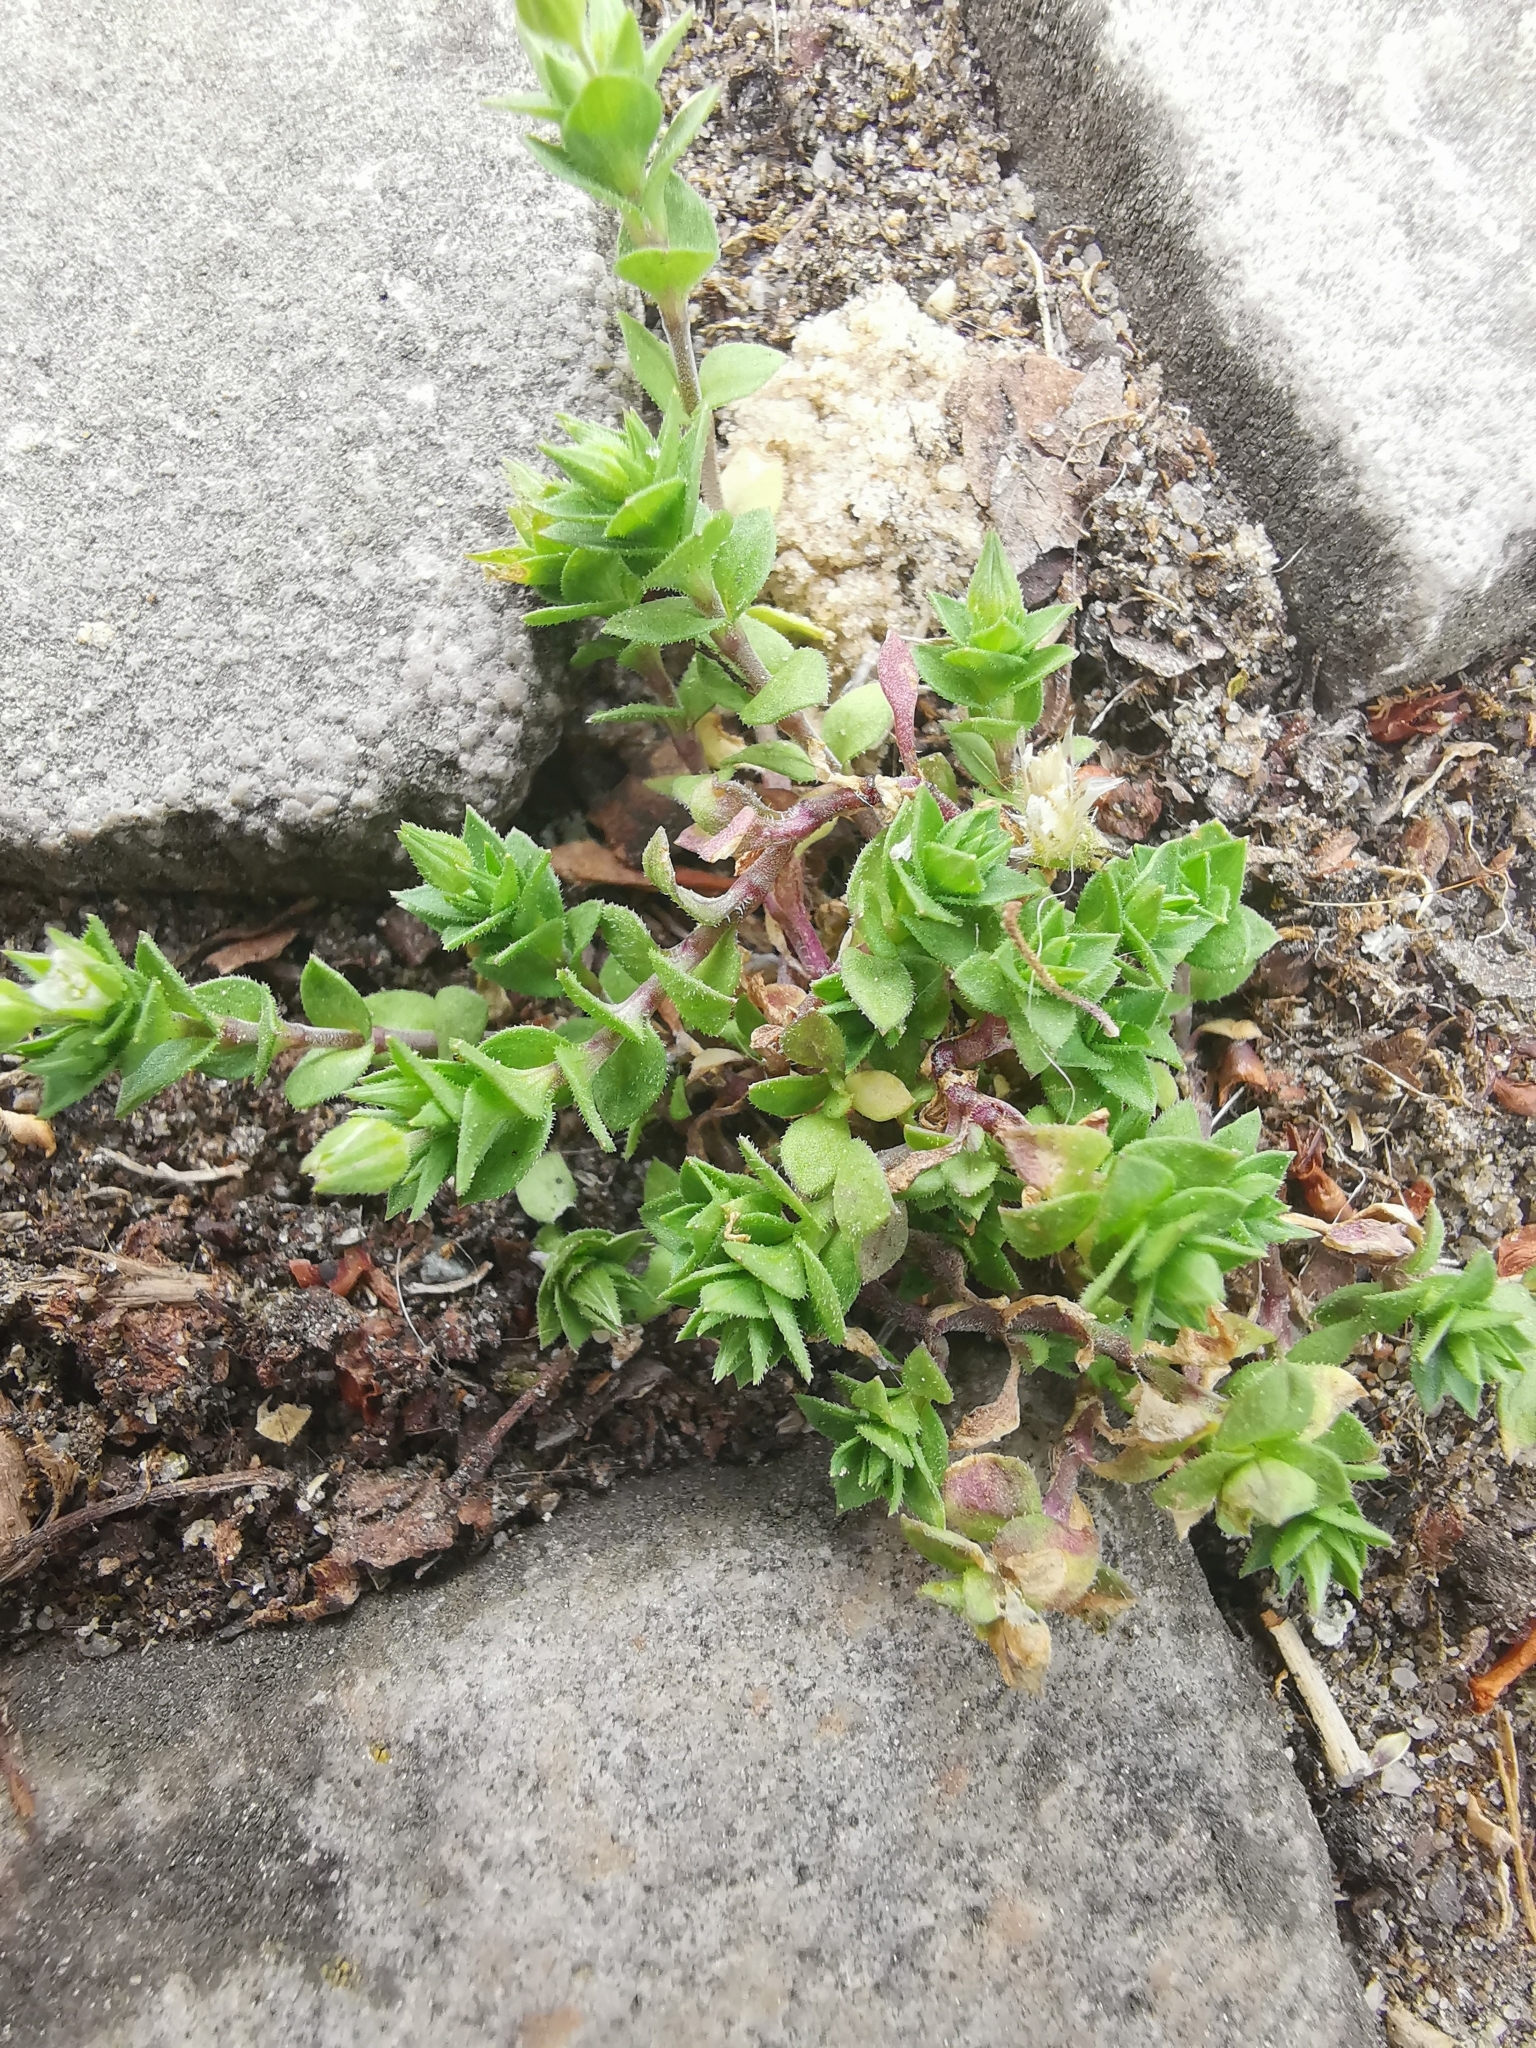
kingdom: Plantae
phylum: Tracheophyta
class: Magnoliopsida
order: Caryophyllales
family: Caryophyllaceae
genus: Arenaria
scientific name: Arenaria serpyllifolia
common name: Thyme-leaved sandwort
